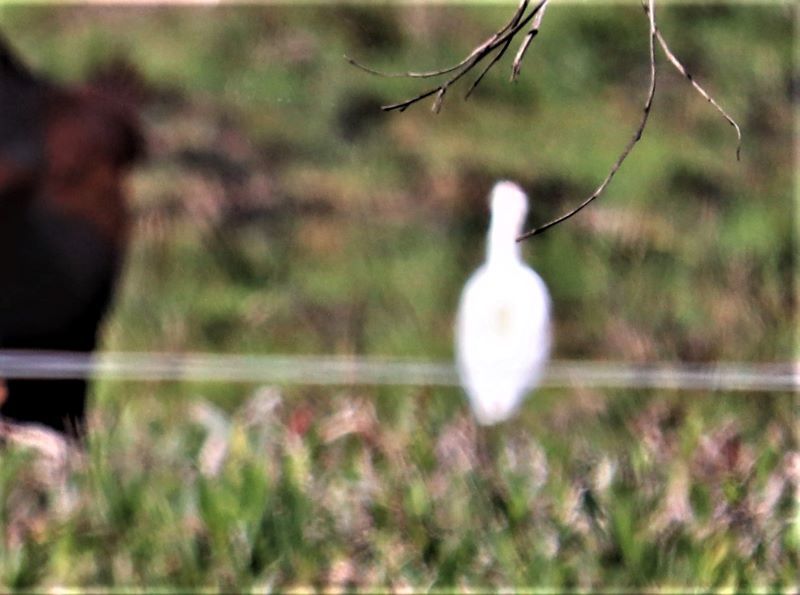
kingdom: Animalia
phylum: Chordata
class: Aves
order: Pelecaniformes
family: Ardeidae
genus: Bubulcus
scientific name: Bubulcus ibis
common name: Cattle egret
